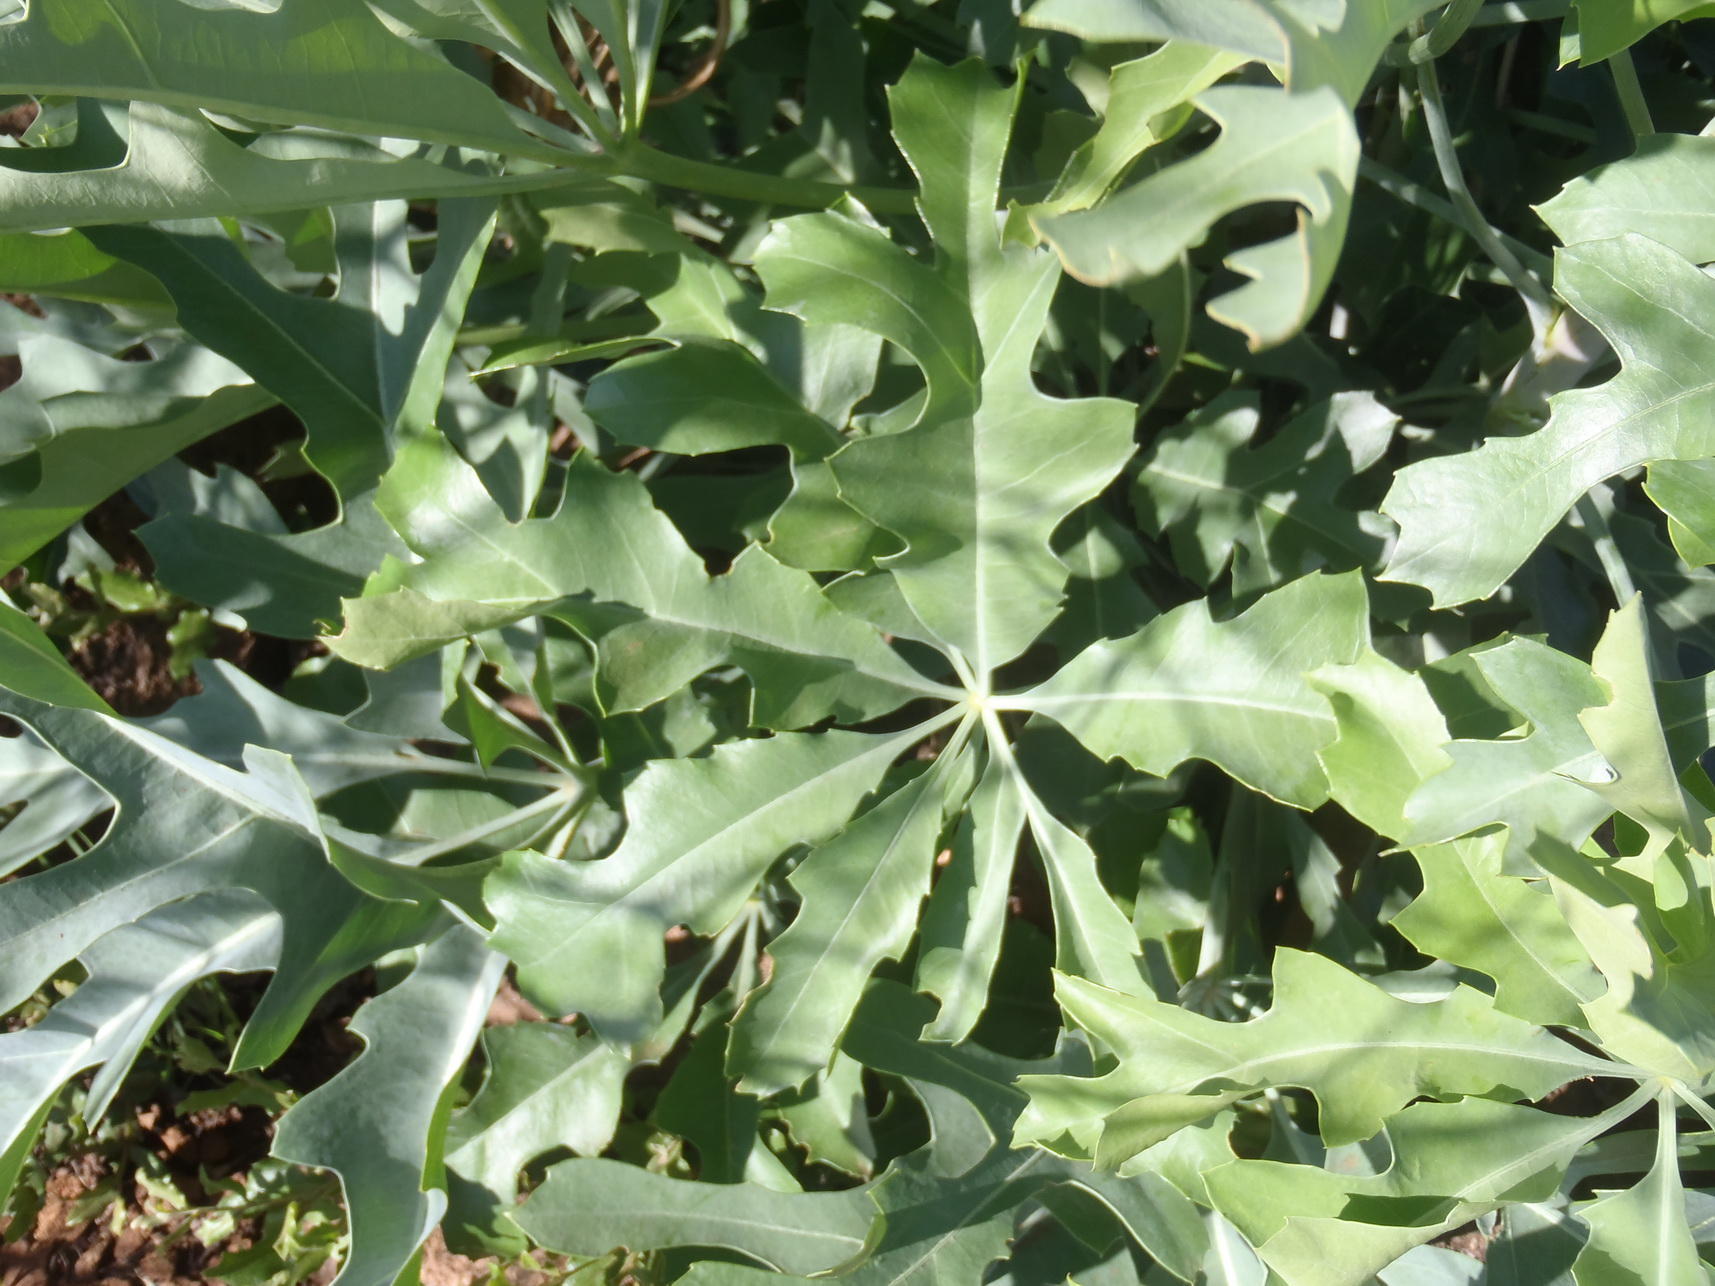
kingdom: Plantae
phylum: Tracheophyta
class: Magnoliopsida
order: Apiales
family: Araliaceae
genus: Cussonia
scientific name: Cussonia paniculata
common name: Cabbagetree
